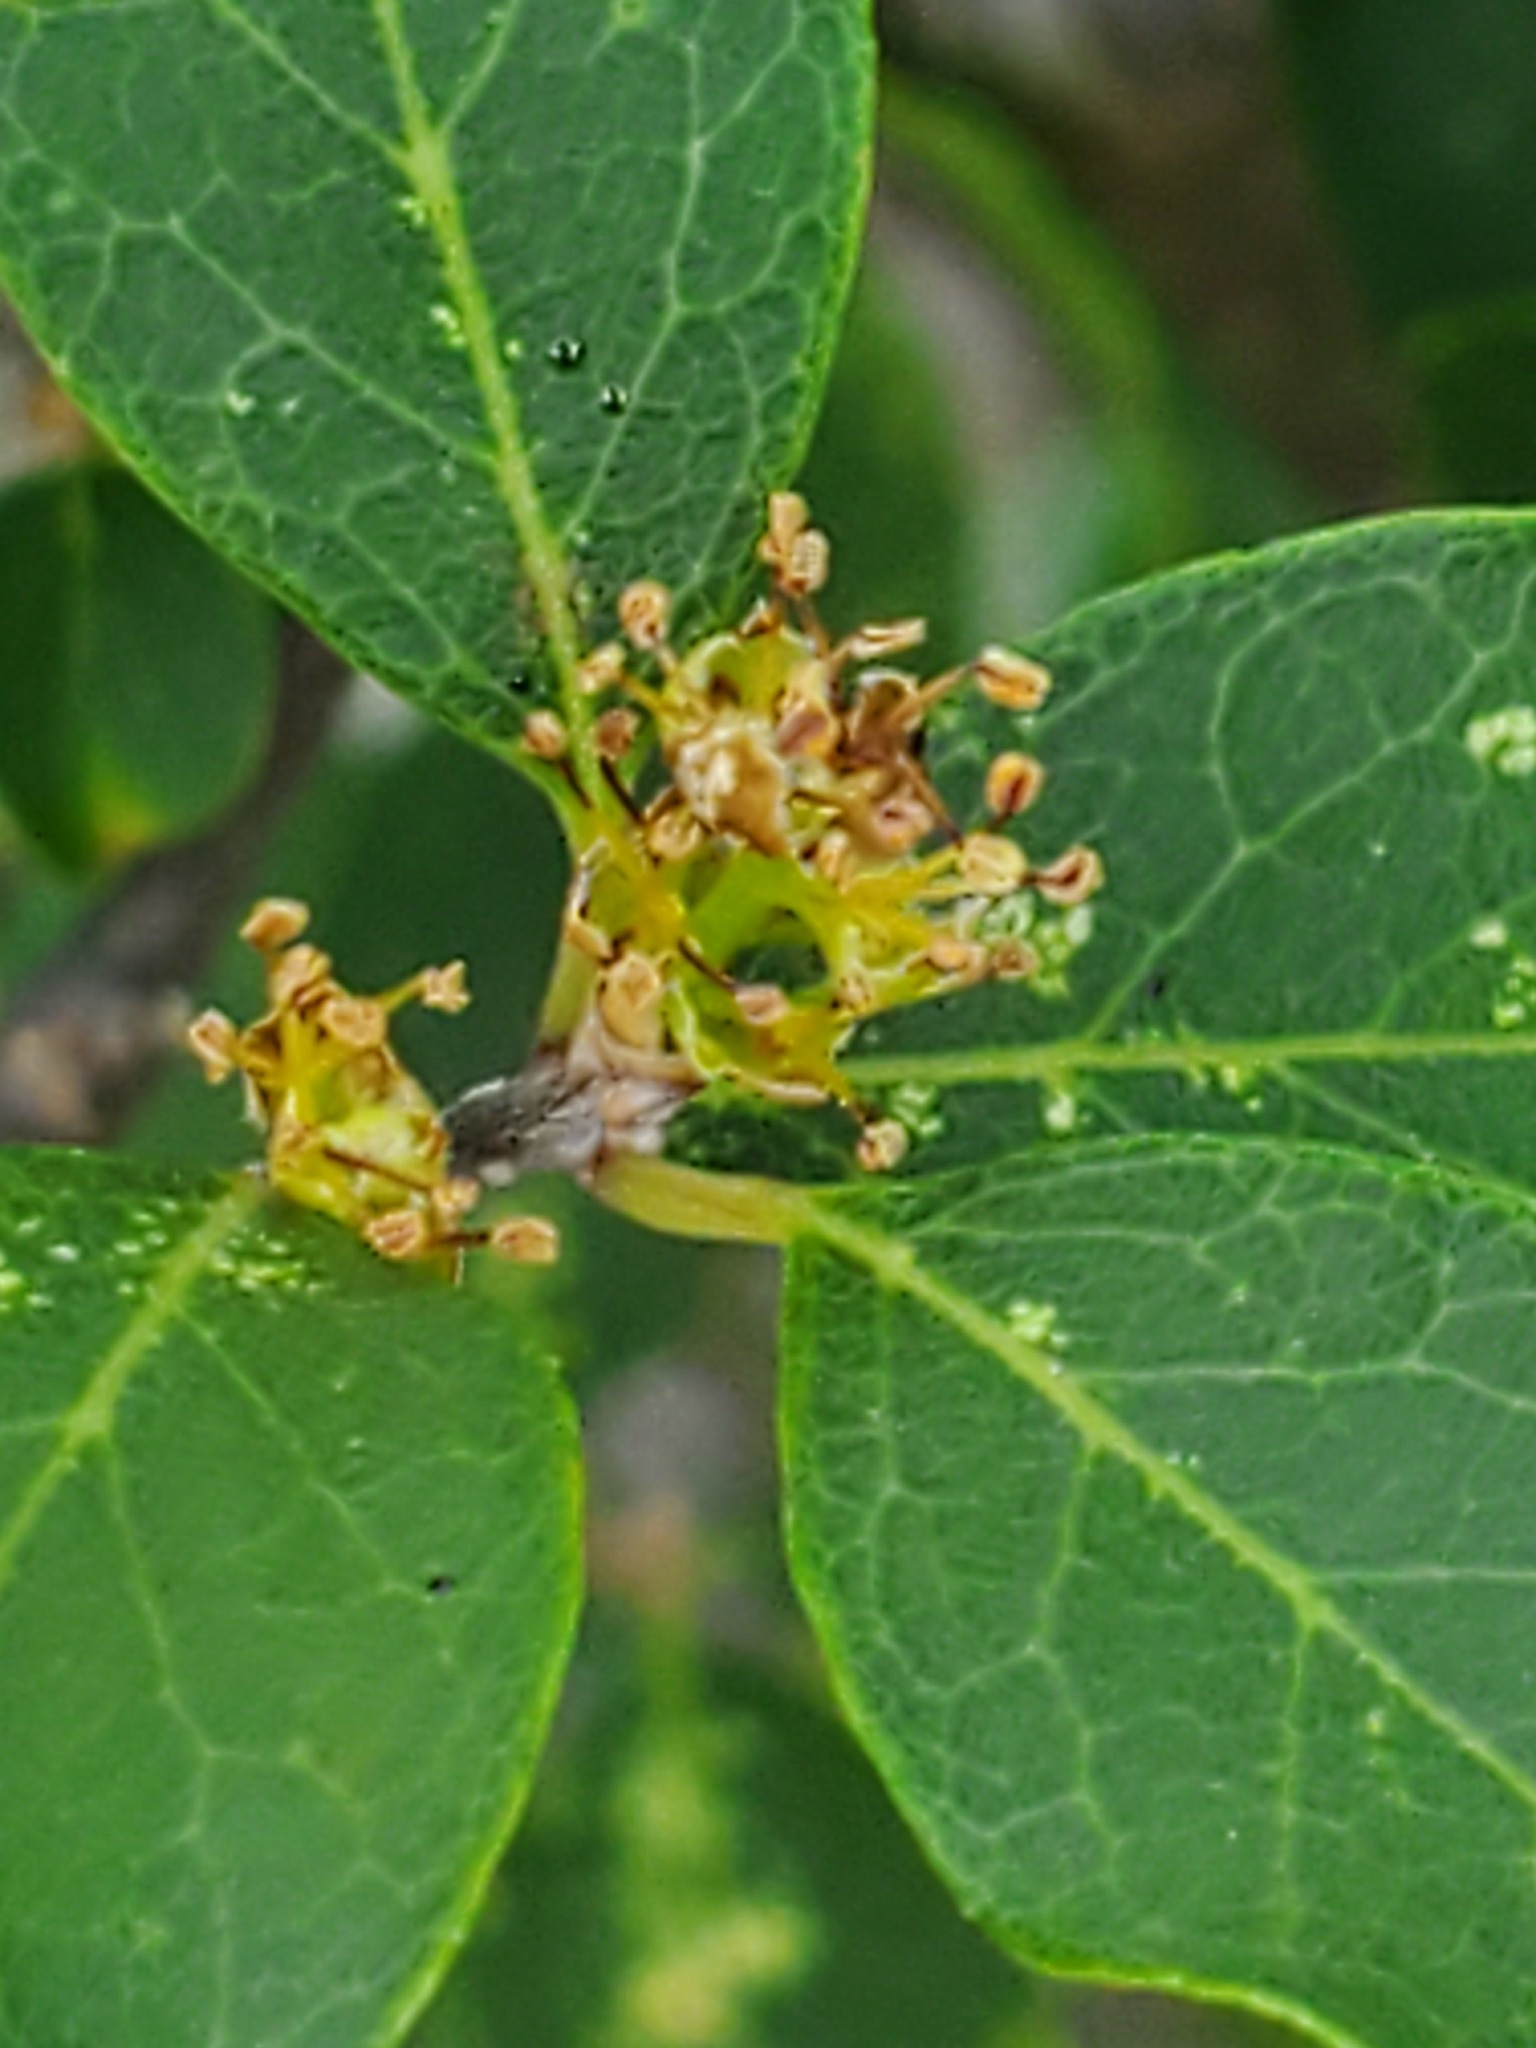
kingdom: Plantae
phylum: Tracheophyta
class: Magnoliopsida
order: Lamiales
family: Oleaceae
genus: Forestiera
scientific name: Forestiera reticulata
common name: Netleaf swamp-privet
